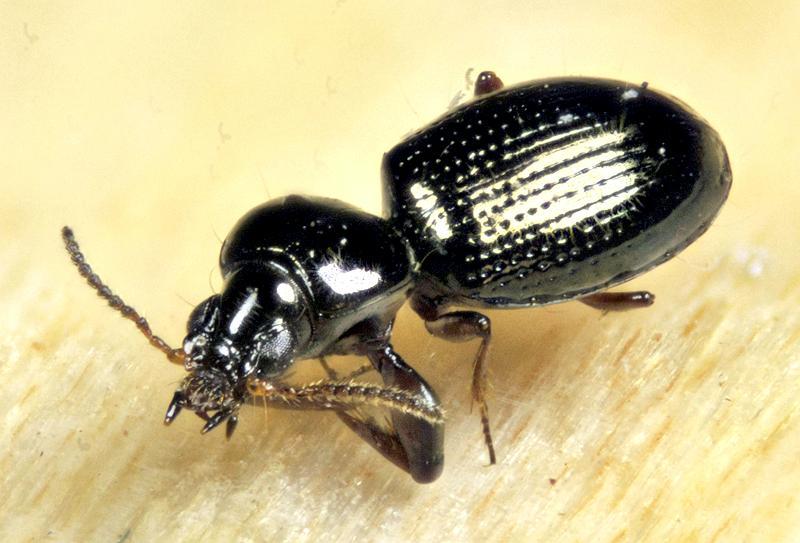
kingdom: Animalia
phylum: Arthropoda
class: Insecta
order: Coleoptera
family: Carabidae
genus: Dyschirius
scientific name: Dyschirius dejeanii
